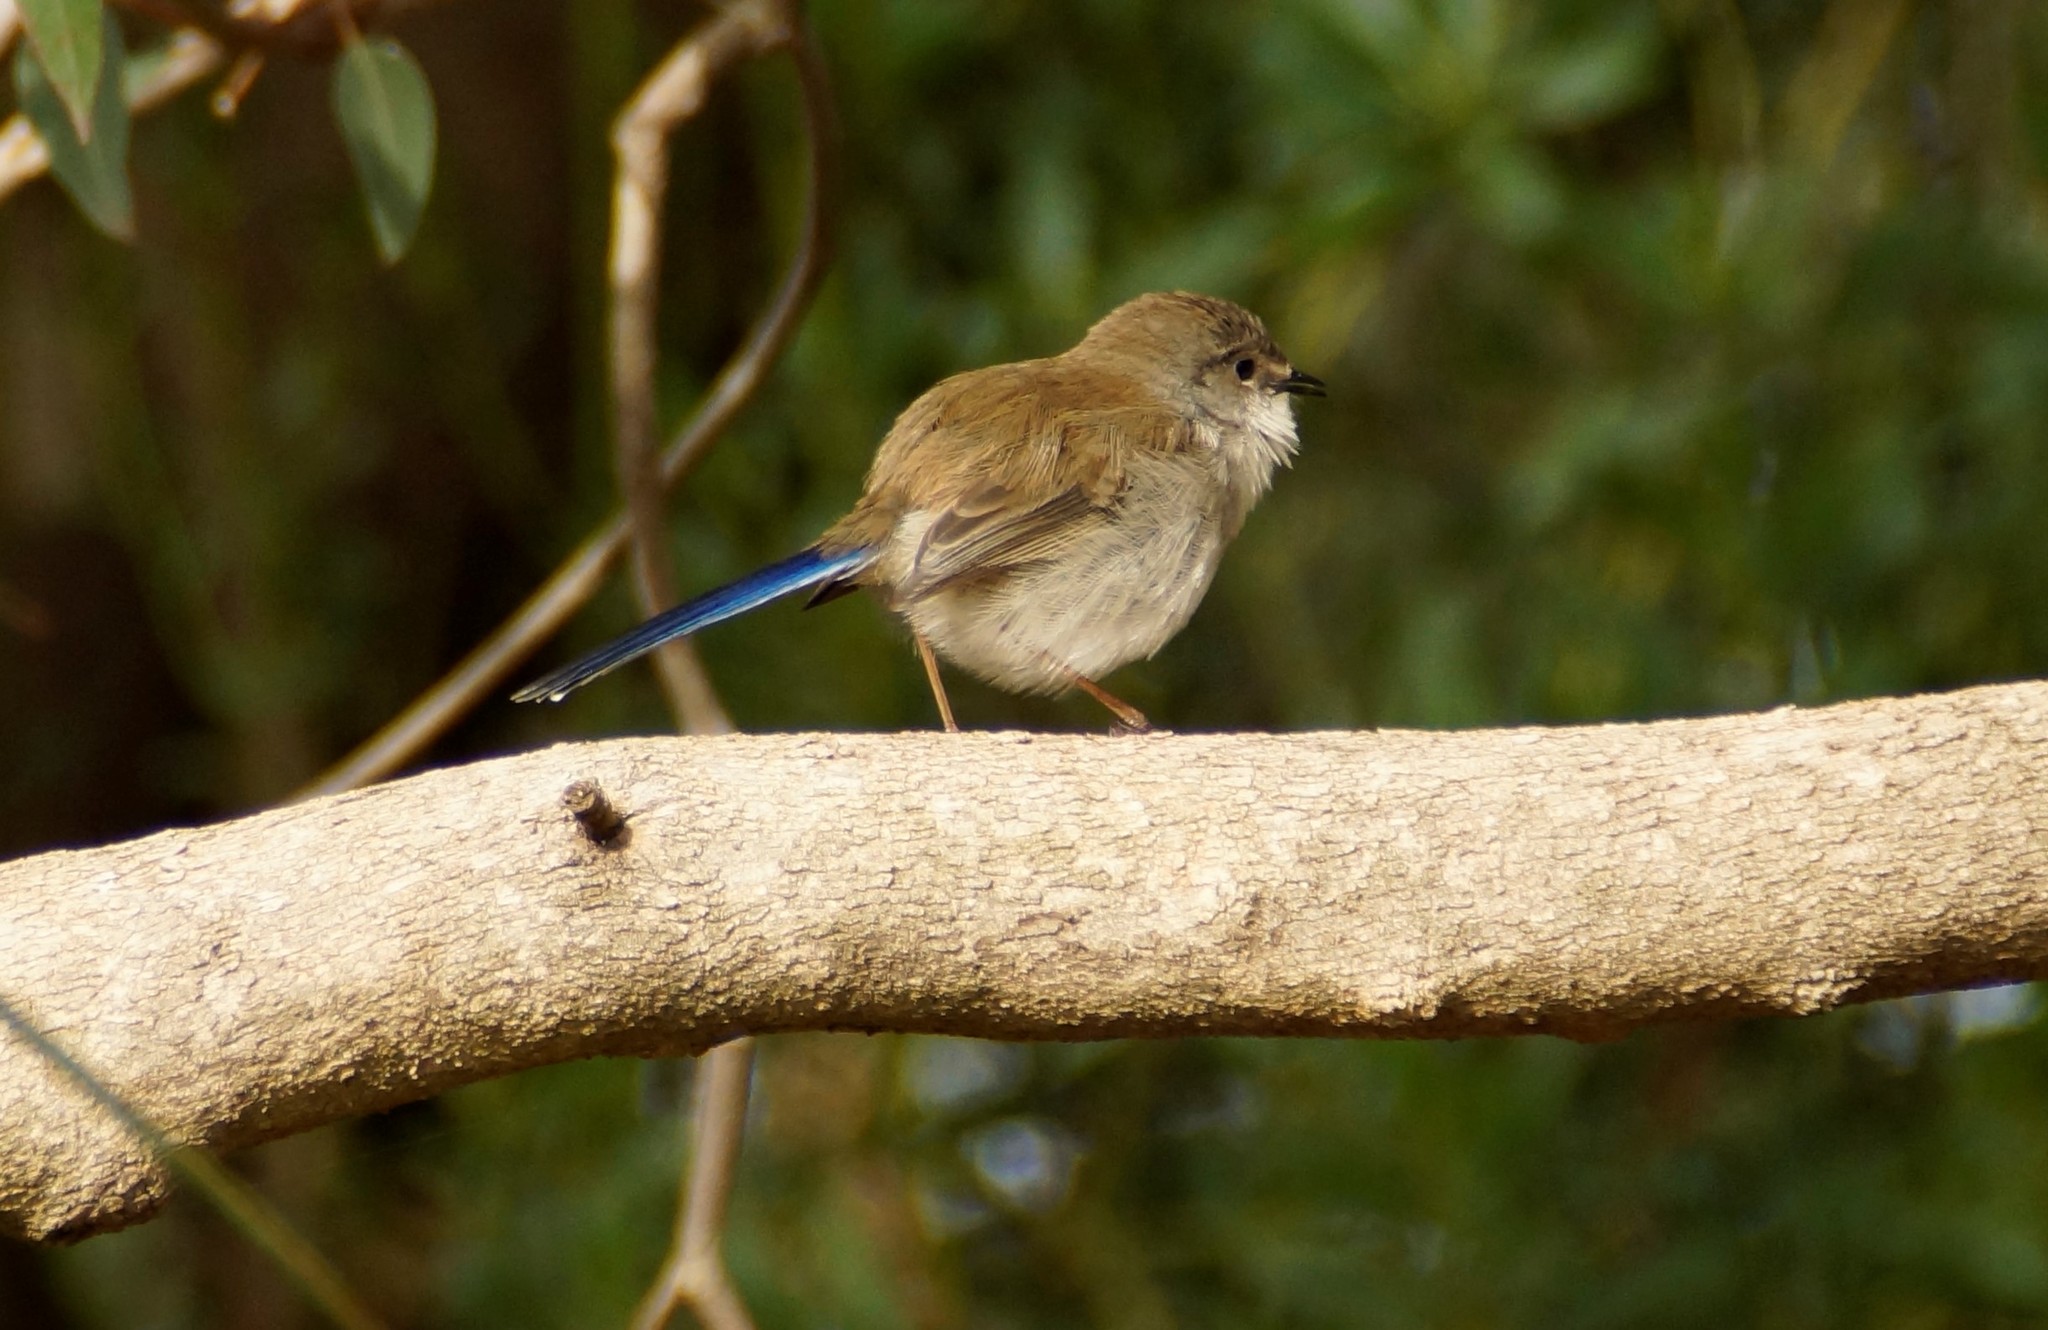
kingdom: Animalia
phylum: Chordata
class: Aves
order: Passeriformes
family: Maluridae
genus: Malurus
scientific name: Malurus cyaneus
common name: Superb fairywren
